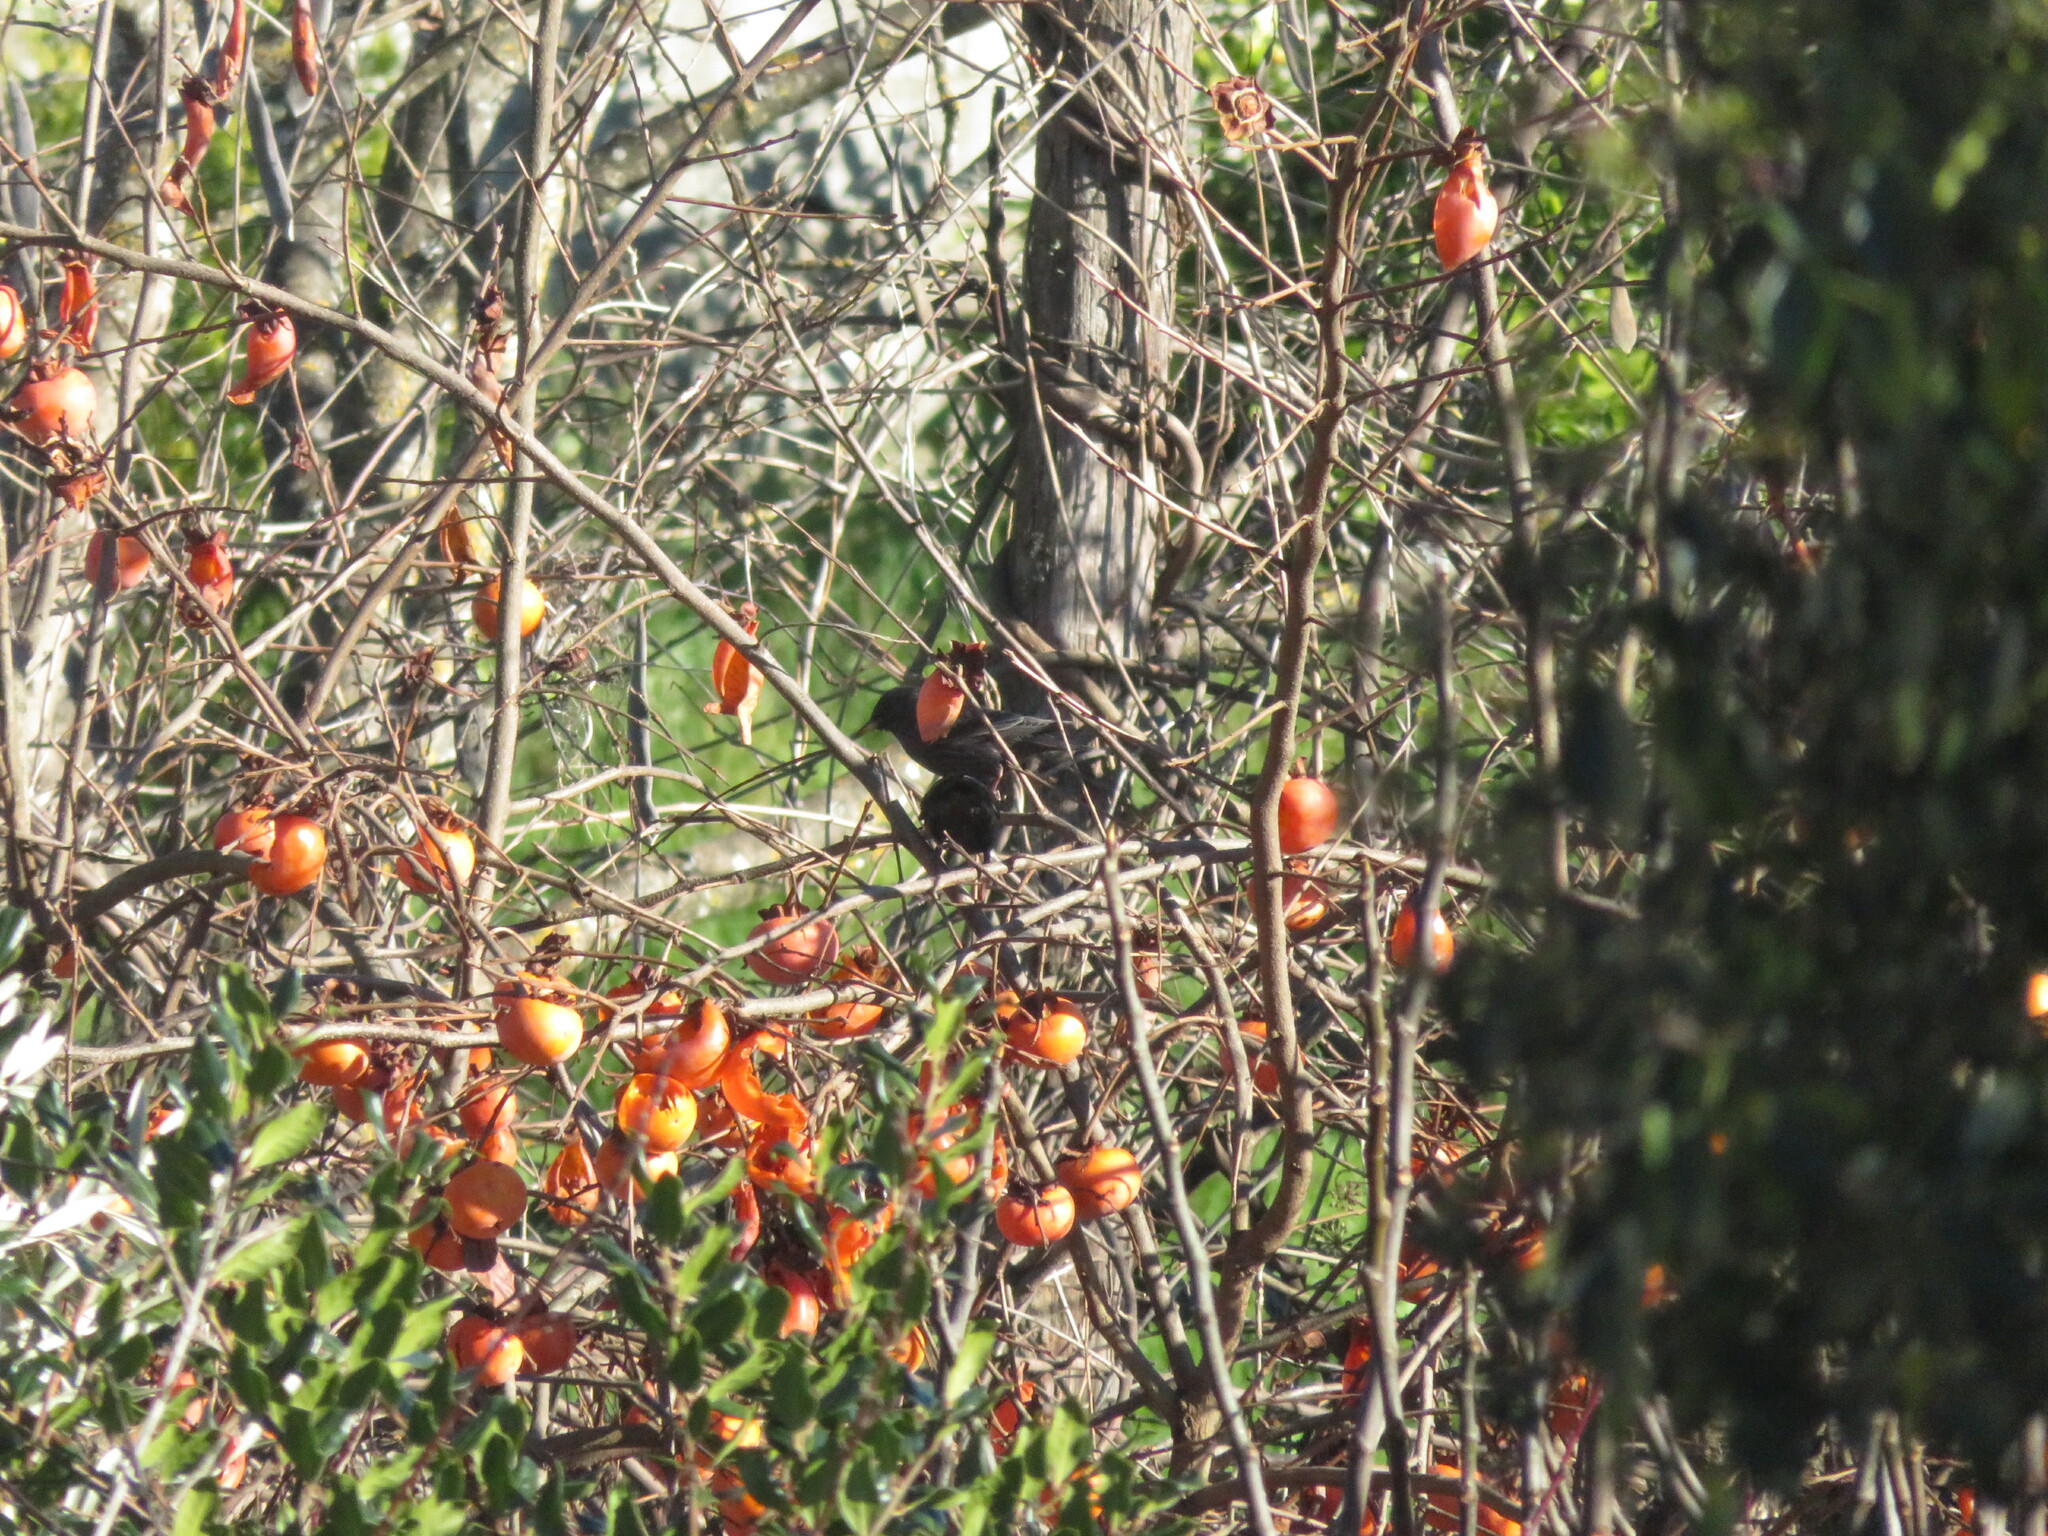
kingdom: Animalia
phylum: Chordata
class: Aves
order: Passeriformes
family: Sturnidae
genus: Sturnus
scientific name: Sturnus unicolor
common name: Spotless starling
